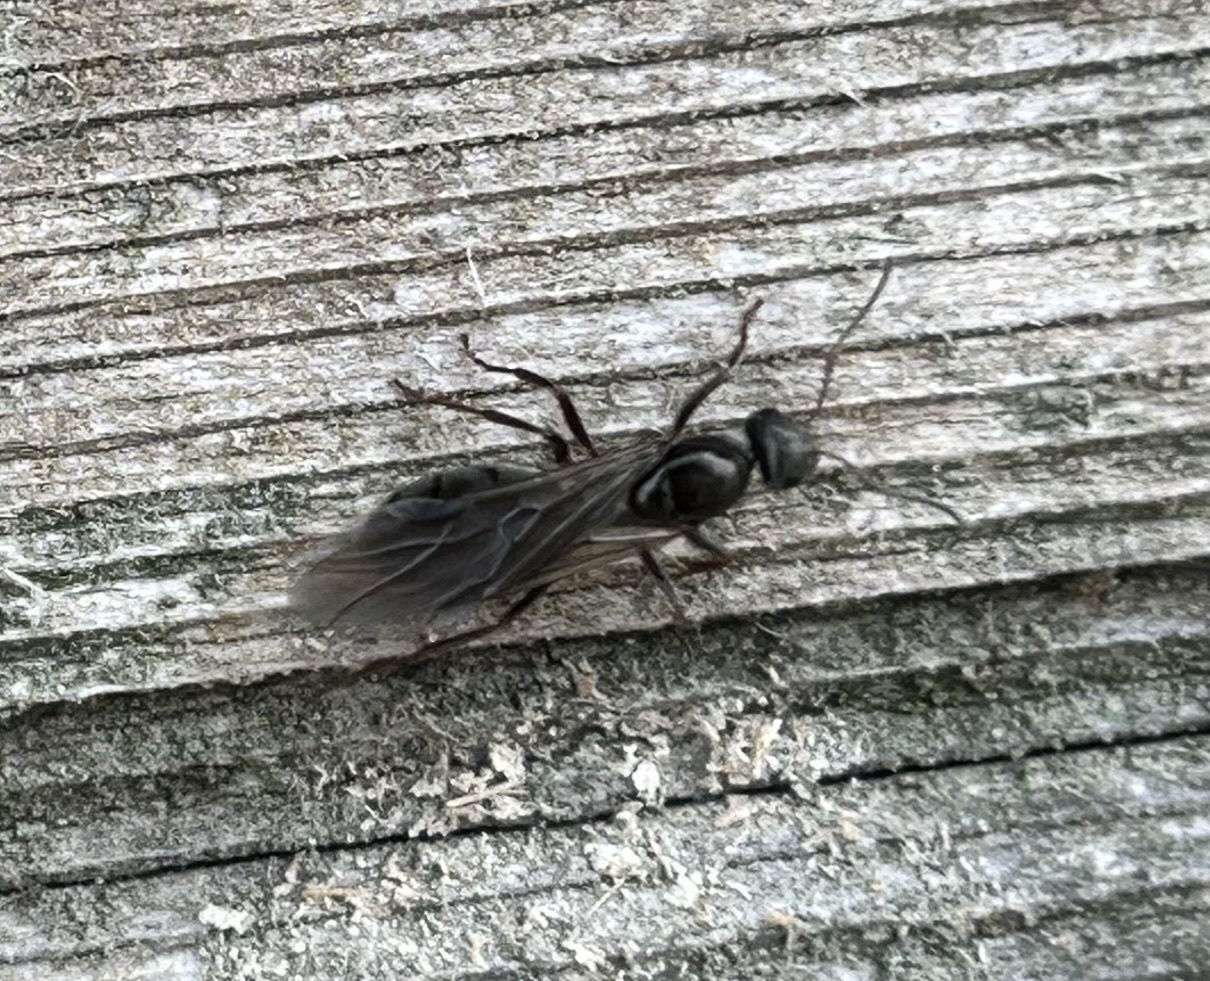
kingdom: Animalia
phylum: Arthropoda
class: Insecta
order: Hymenoptera
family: Formicidae
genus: Formica
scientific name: Formica
